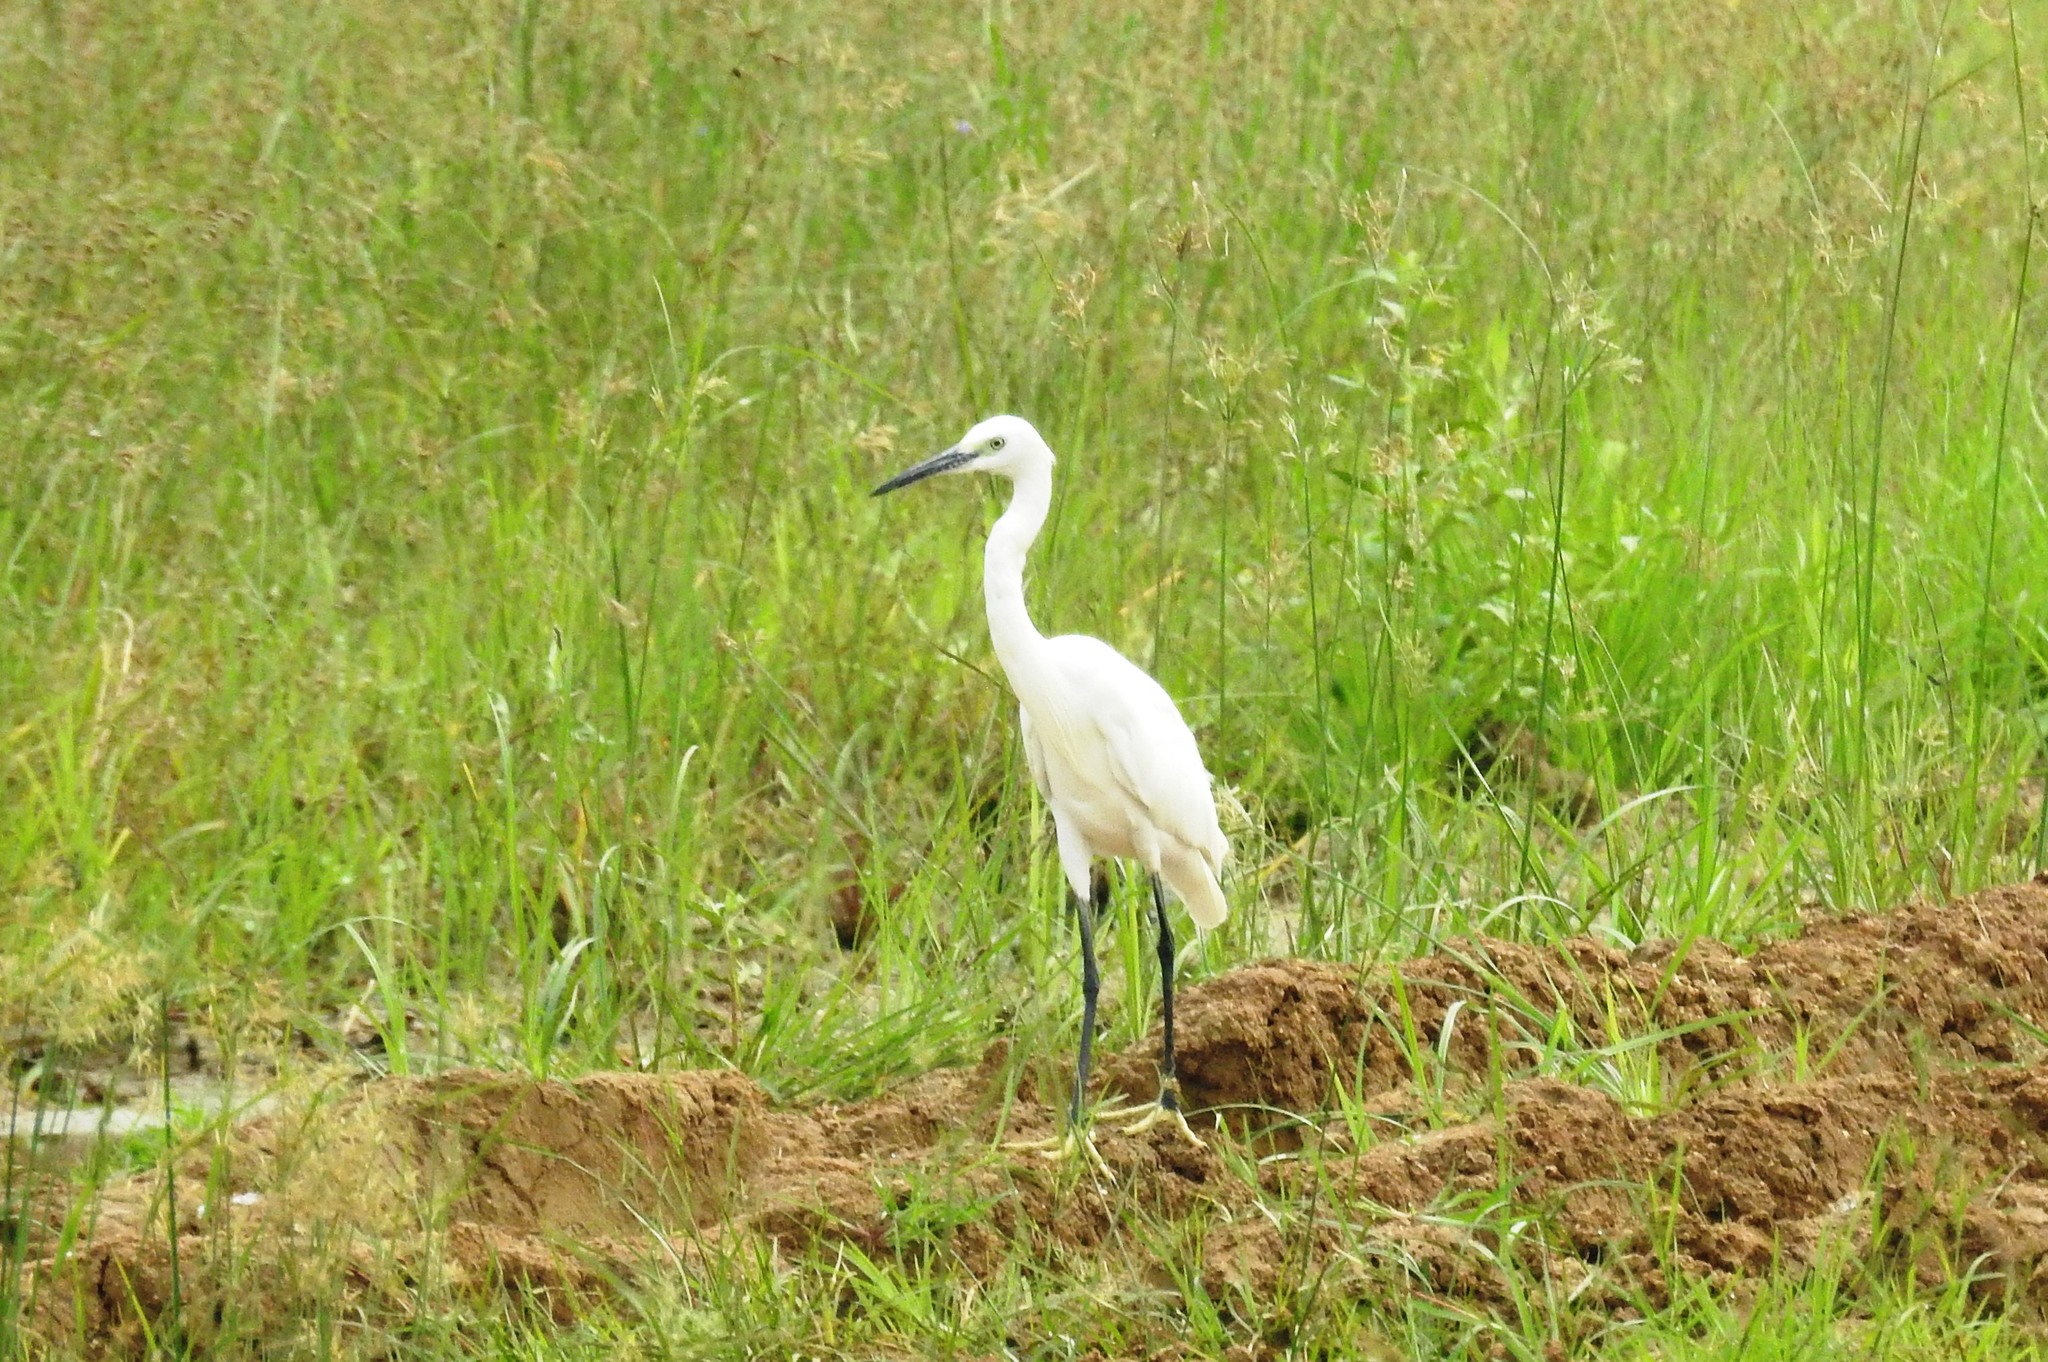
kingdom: Animalia
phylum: Chordata
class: Aves
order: Pelecaniformes
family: Ardeidae
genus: Egretta
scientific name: Egretta garzetta
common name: Little egret
